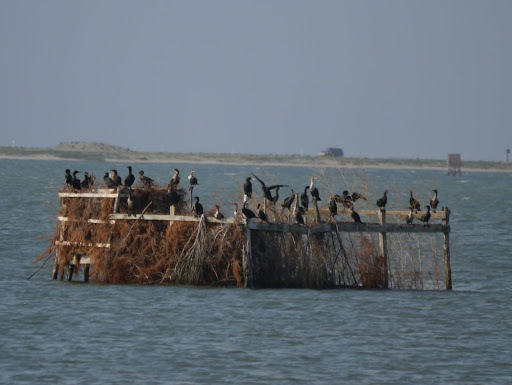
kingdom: Animalia
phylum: Chordata
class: Aves
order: Suliformes
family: Phalacrocoracidae
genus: Phalacrocorax
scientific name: Phalacrocorax auritus
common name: Double-crested cormorant
